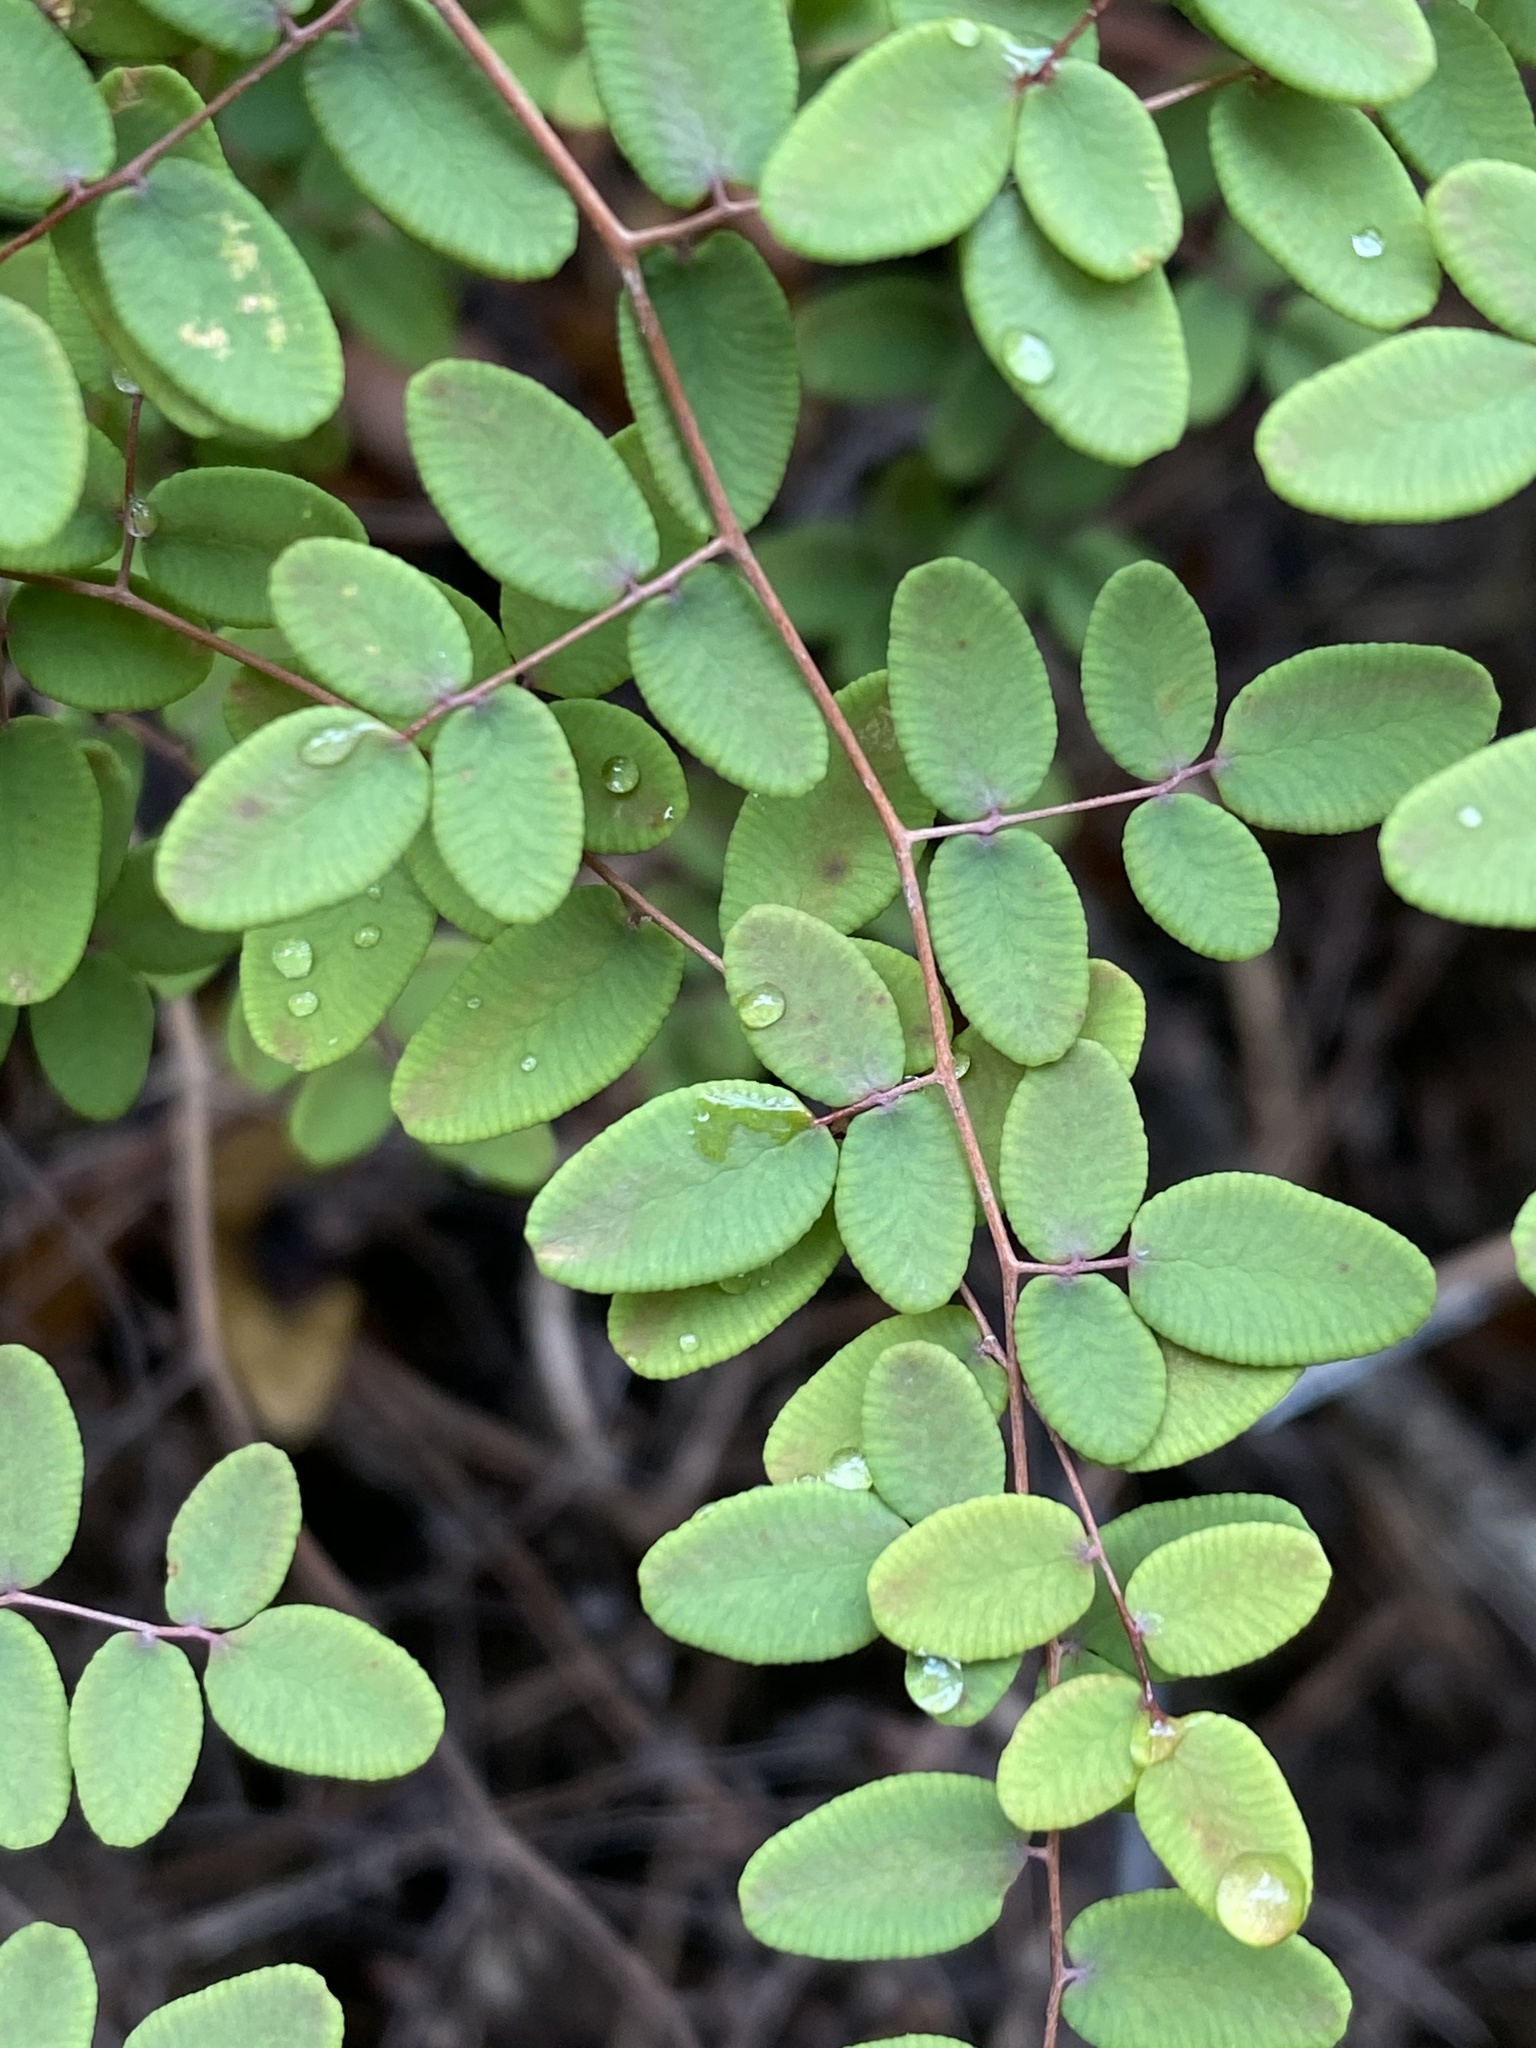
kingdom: Plantae
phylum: Tracheophyta
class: Polypodiopsida
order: Polypodiales
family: Pteridaceae
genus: Pellaea
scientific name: Pellaea andromedifolia
